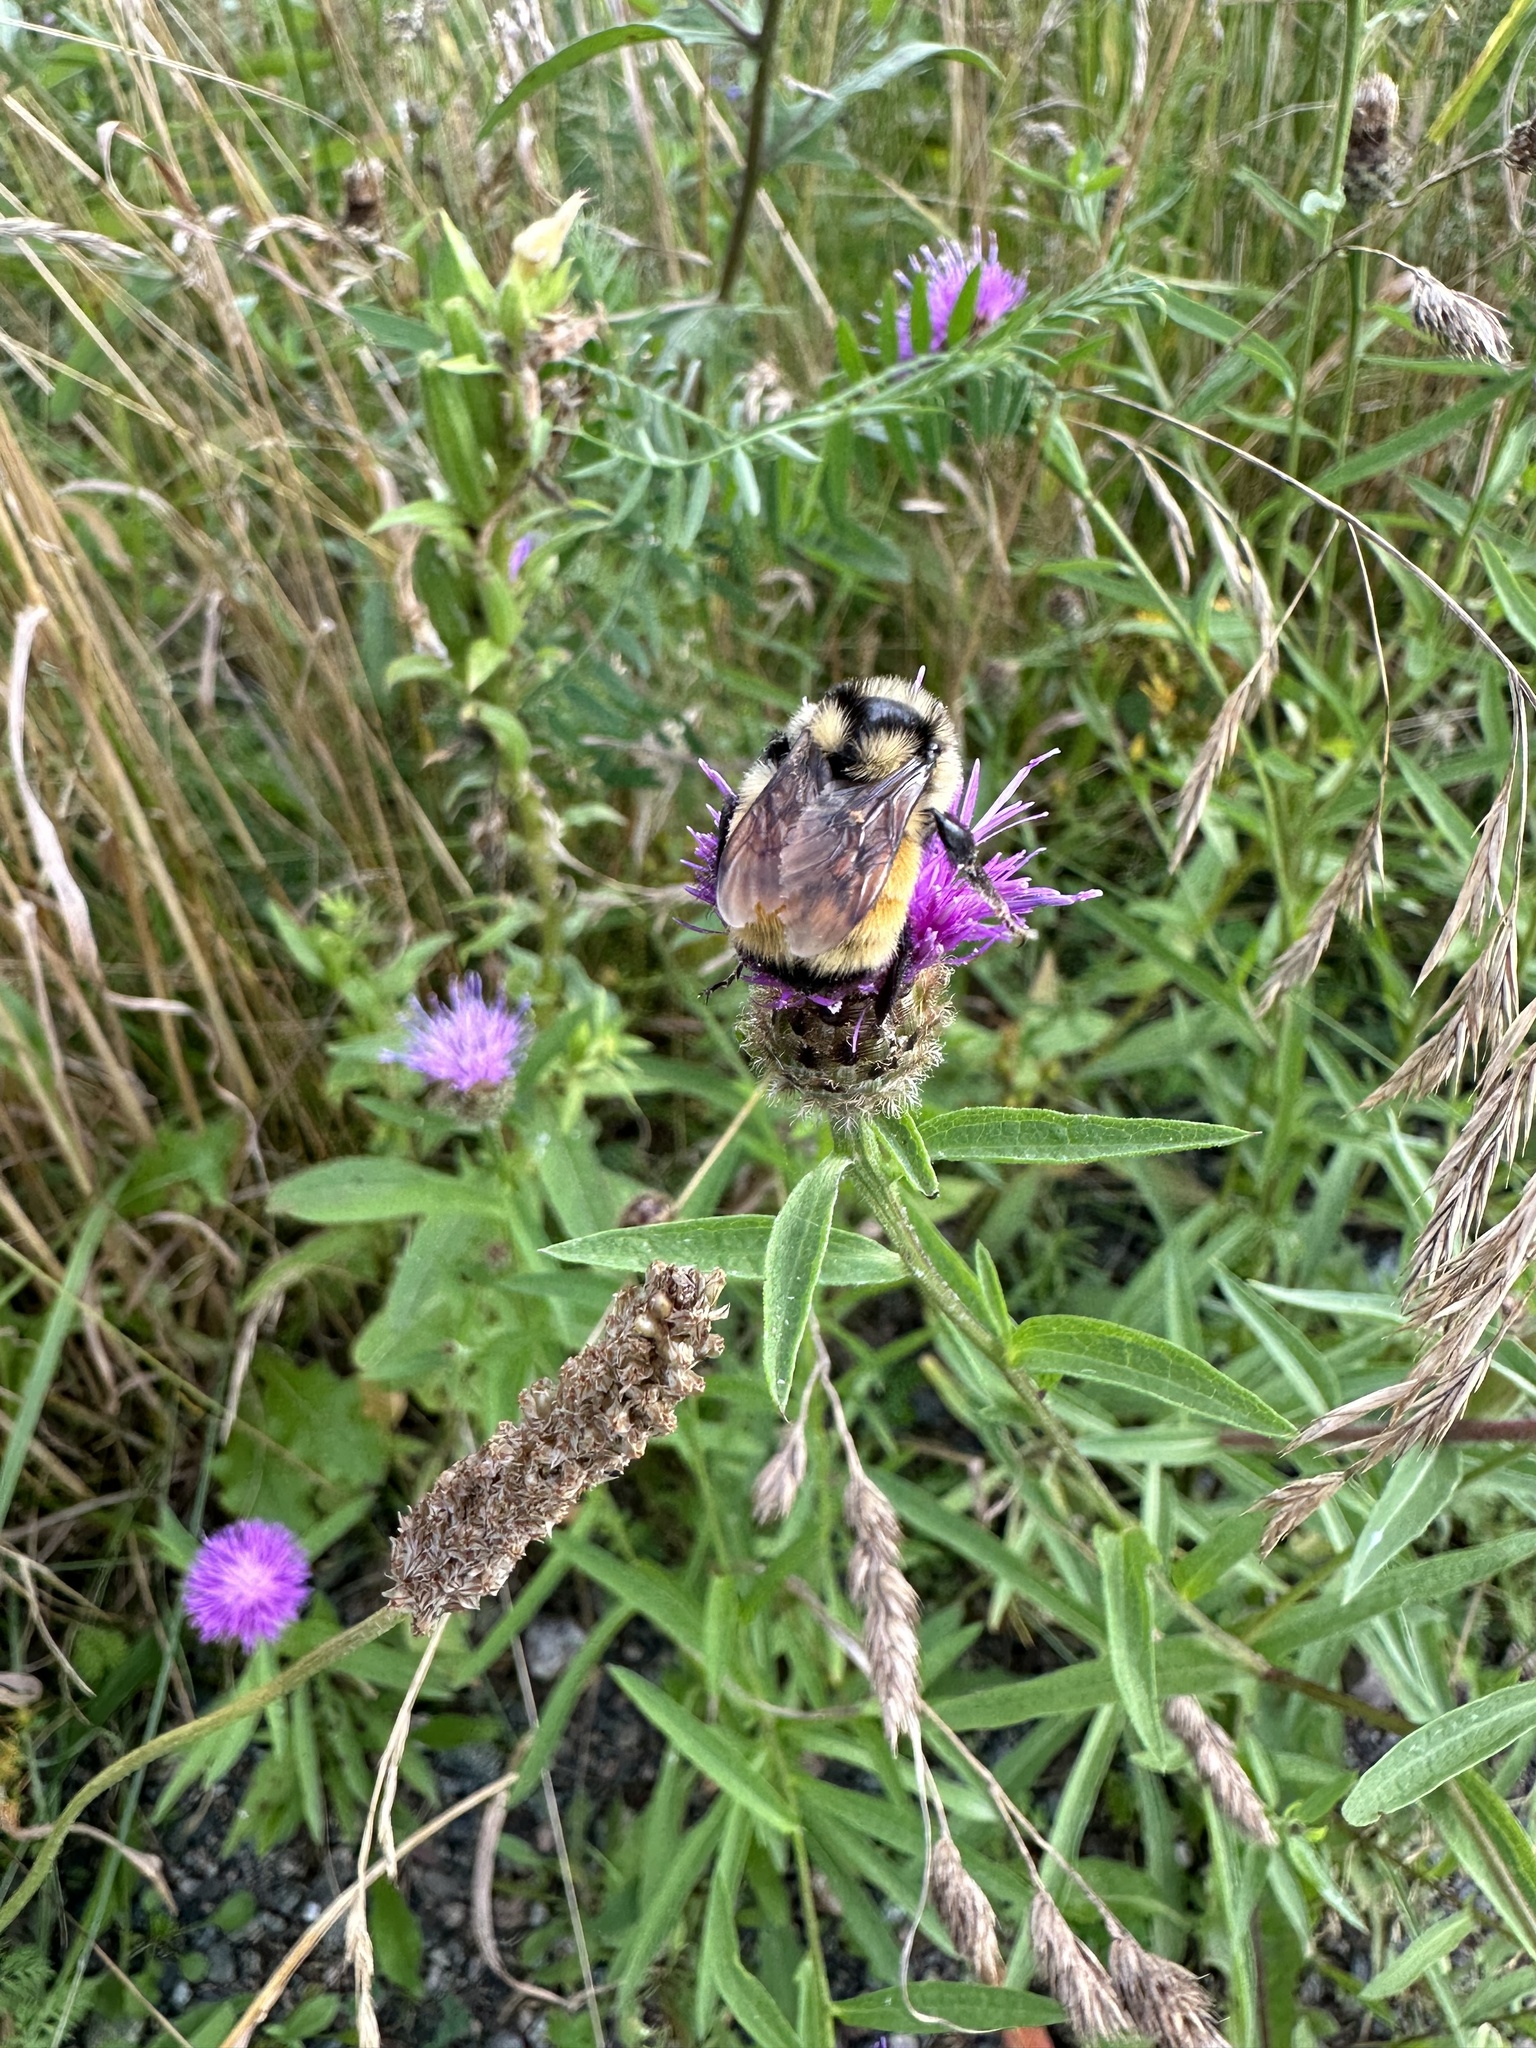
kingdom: Animalia
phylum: Arthropoda
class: Insecta
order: Hymenoptera
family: Apidae
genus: Bombus
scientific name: Bombus ternarius
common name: Tri-colored bumble bee
